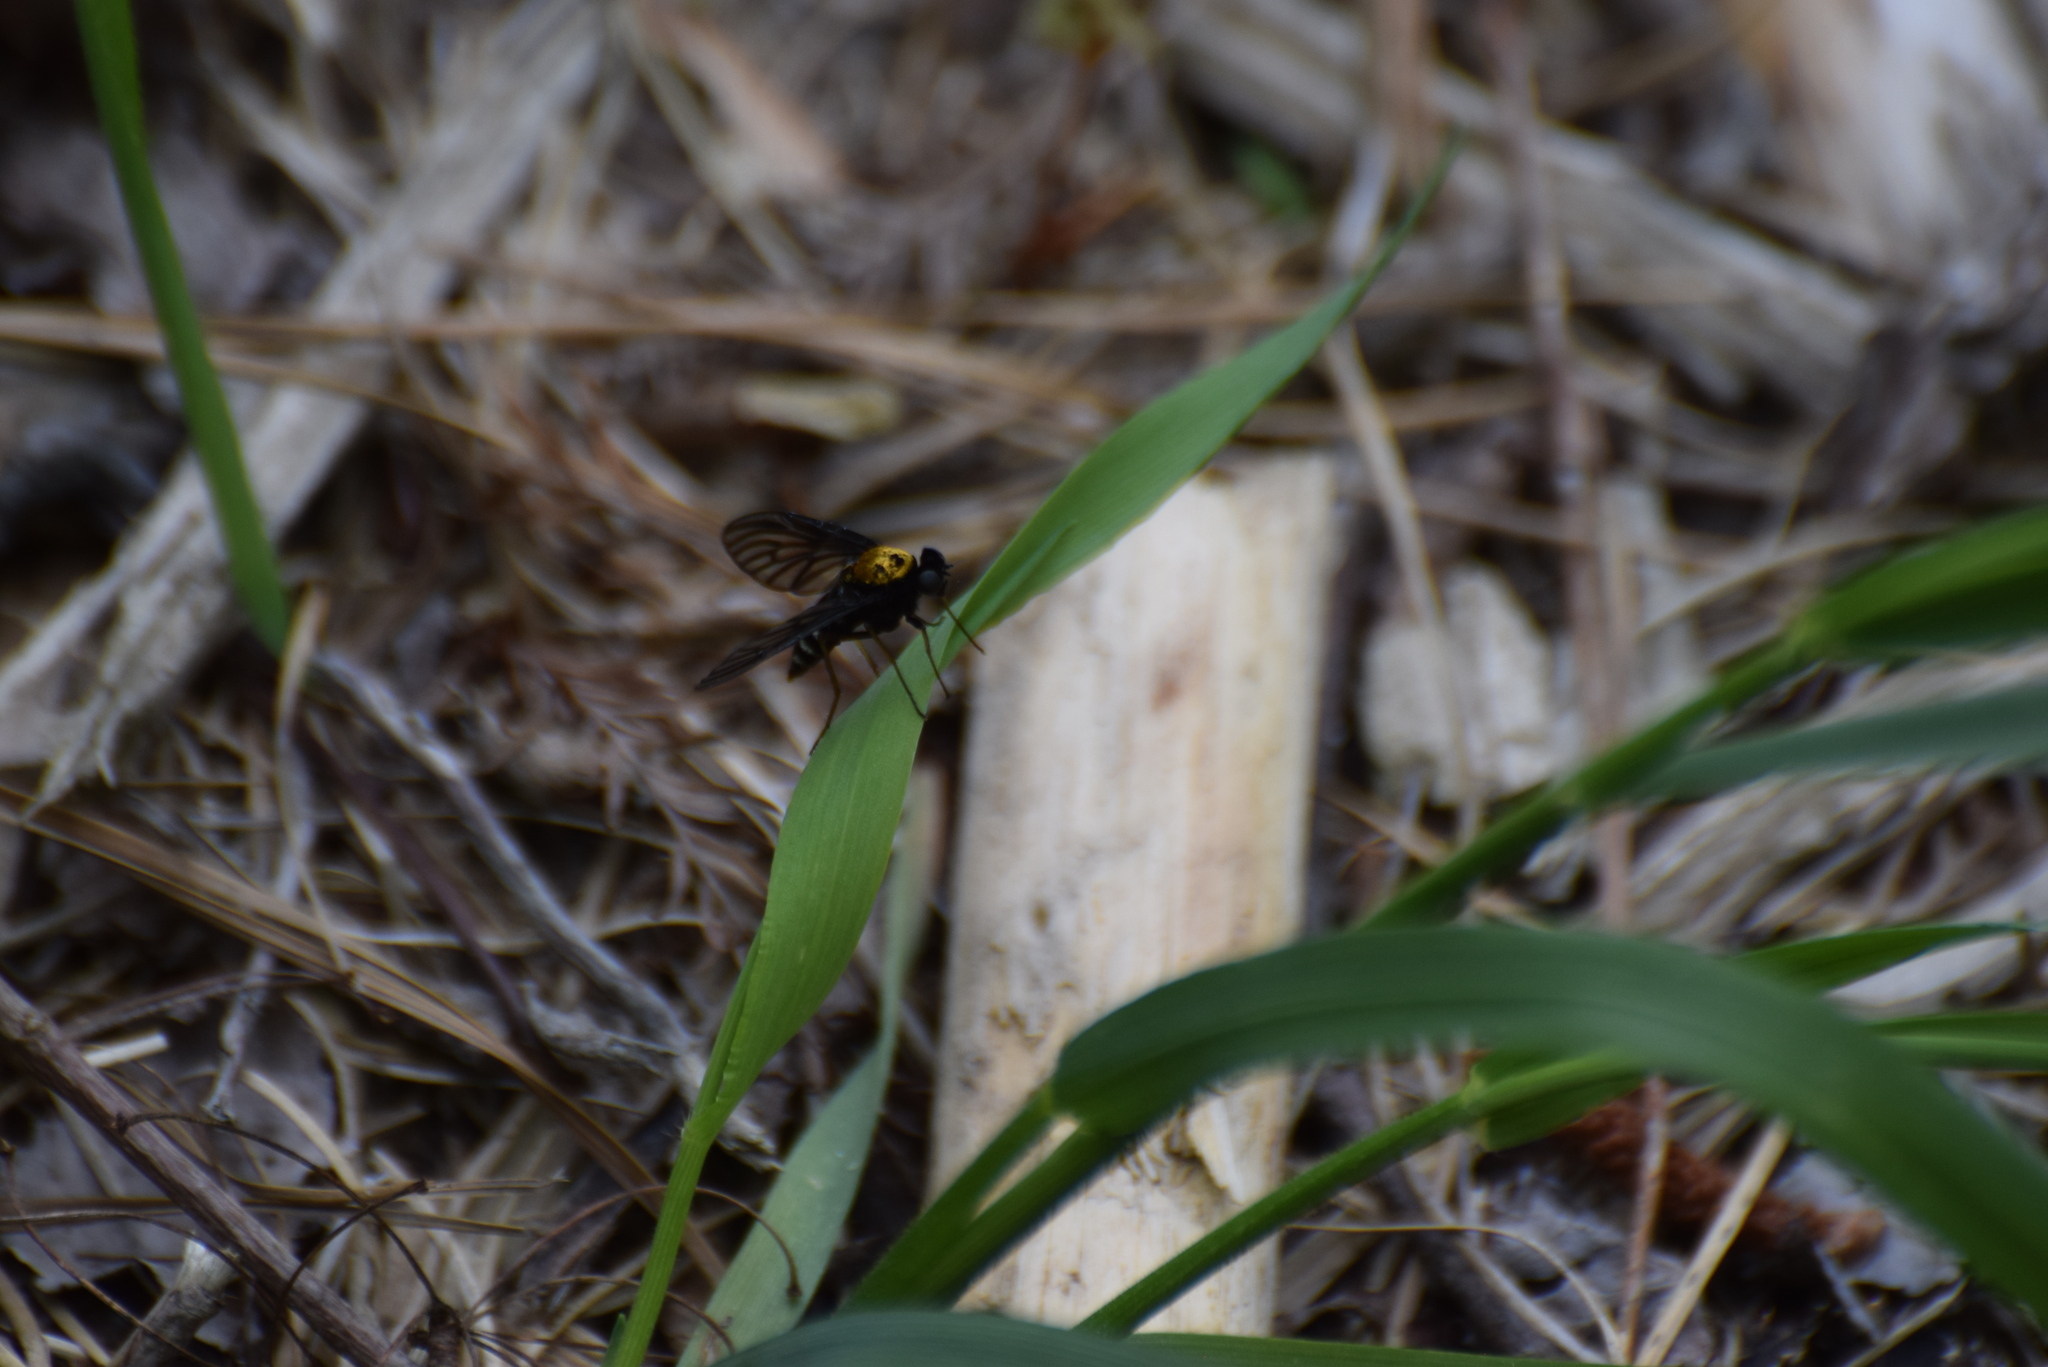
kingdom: Animalia
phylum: Arthropoda
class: Insecta
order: Diptera
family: Rhagionidae
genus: Chrysopilus
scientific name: Chrysopilus thoracicus
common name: Golden-backed snipe fly
